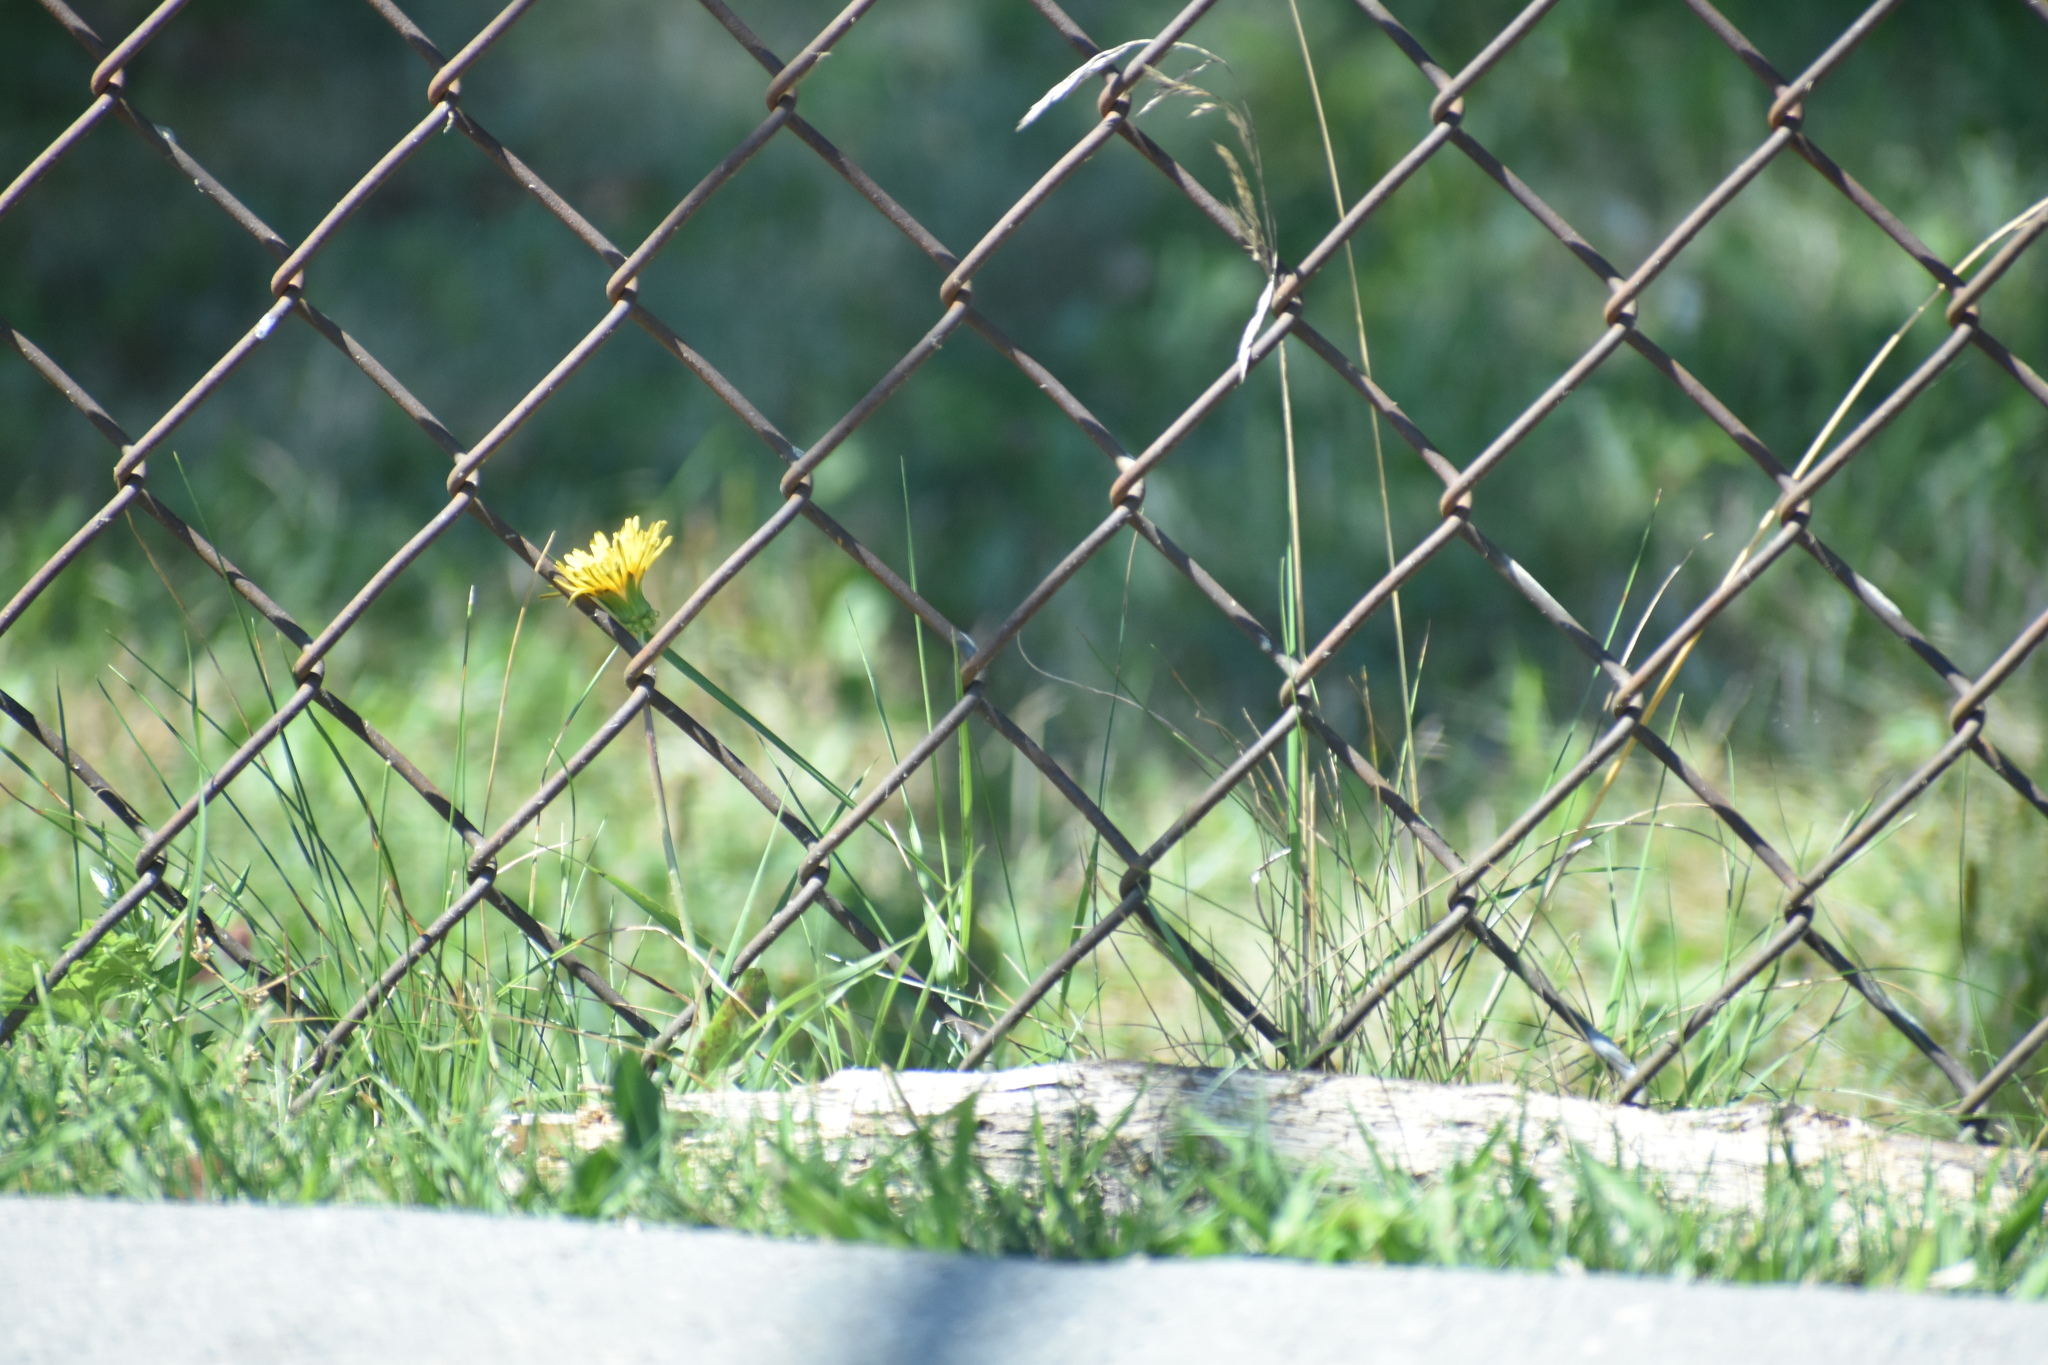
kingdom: Plantae
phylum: Tracheophyta
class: Magnoliopsida
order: Asterales
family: Asteraceae
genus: Taraxacum
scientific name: Taraxacum officinale
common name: Common dandelion
